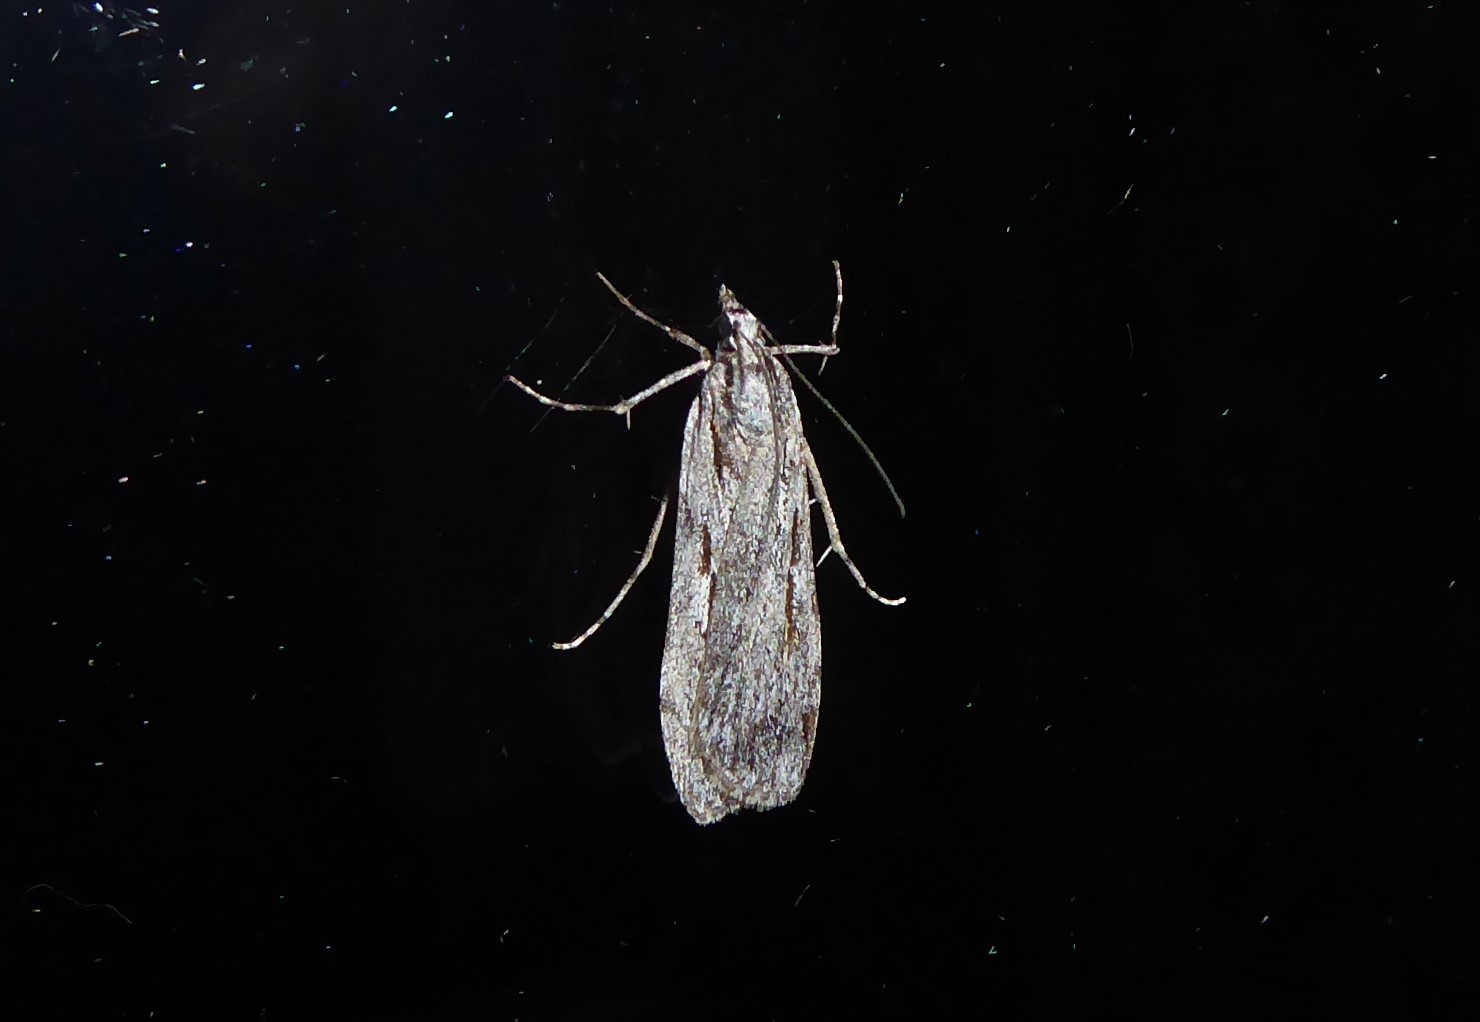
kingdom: Animalia
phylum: Arthropoda
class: Insecta
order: Lepidoptera
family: Crambidae
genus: Scoparia
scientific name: Scoparia indistinctalis
